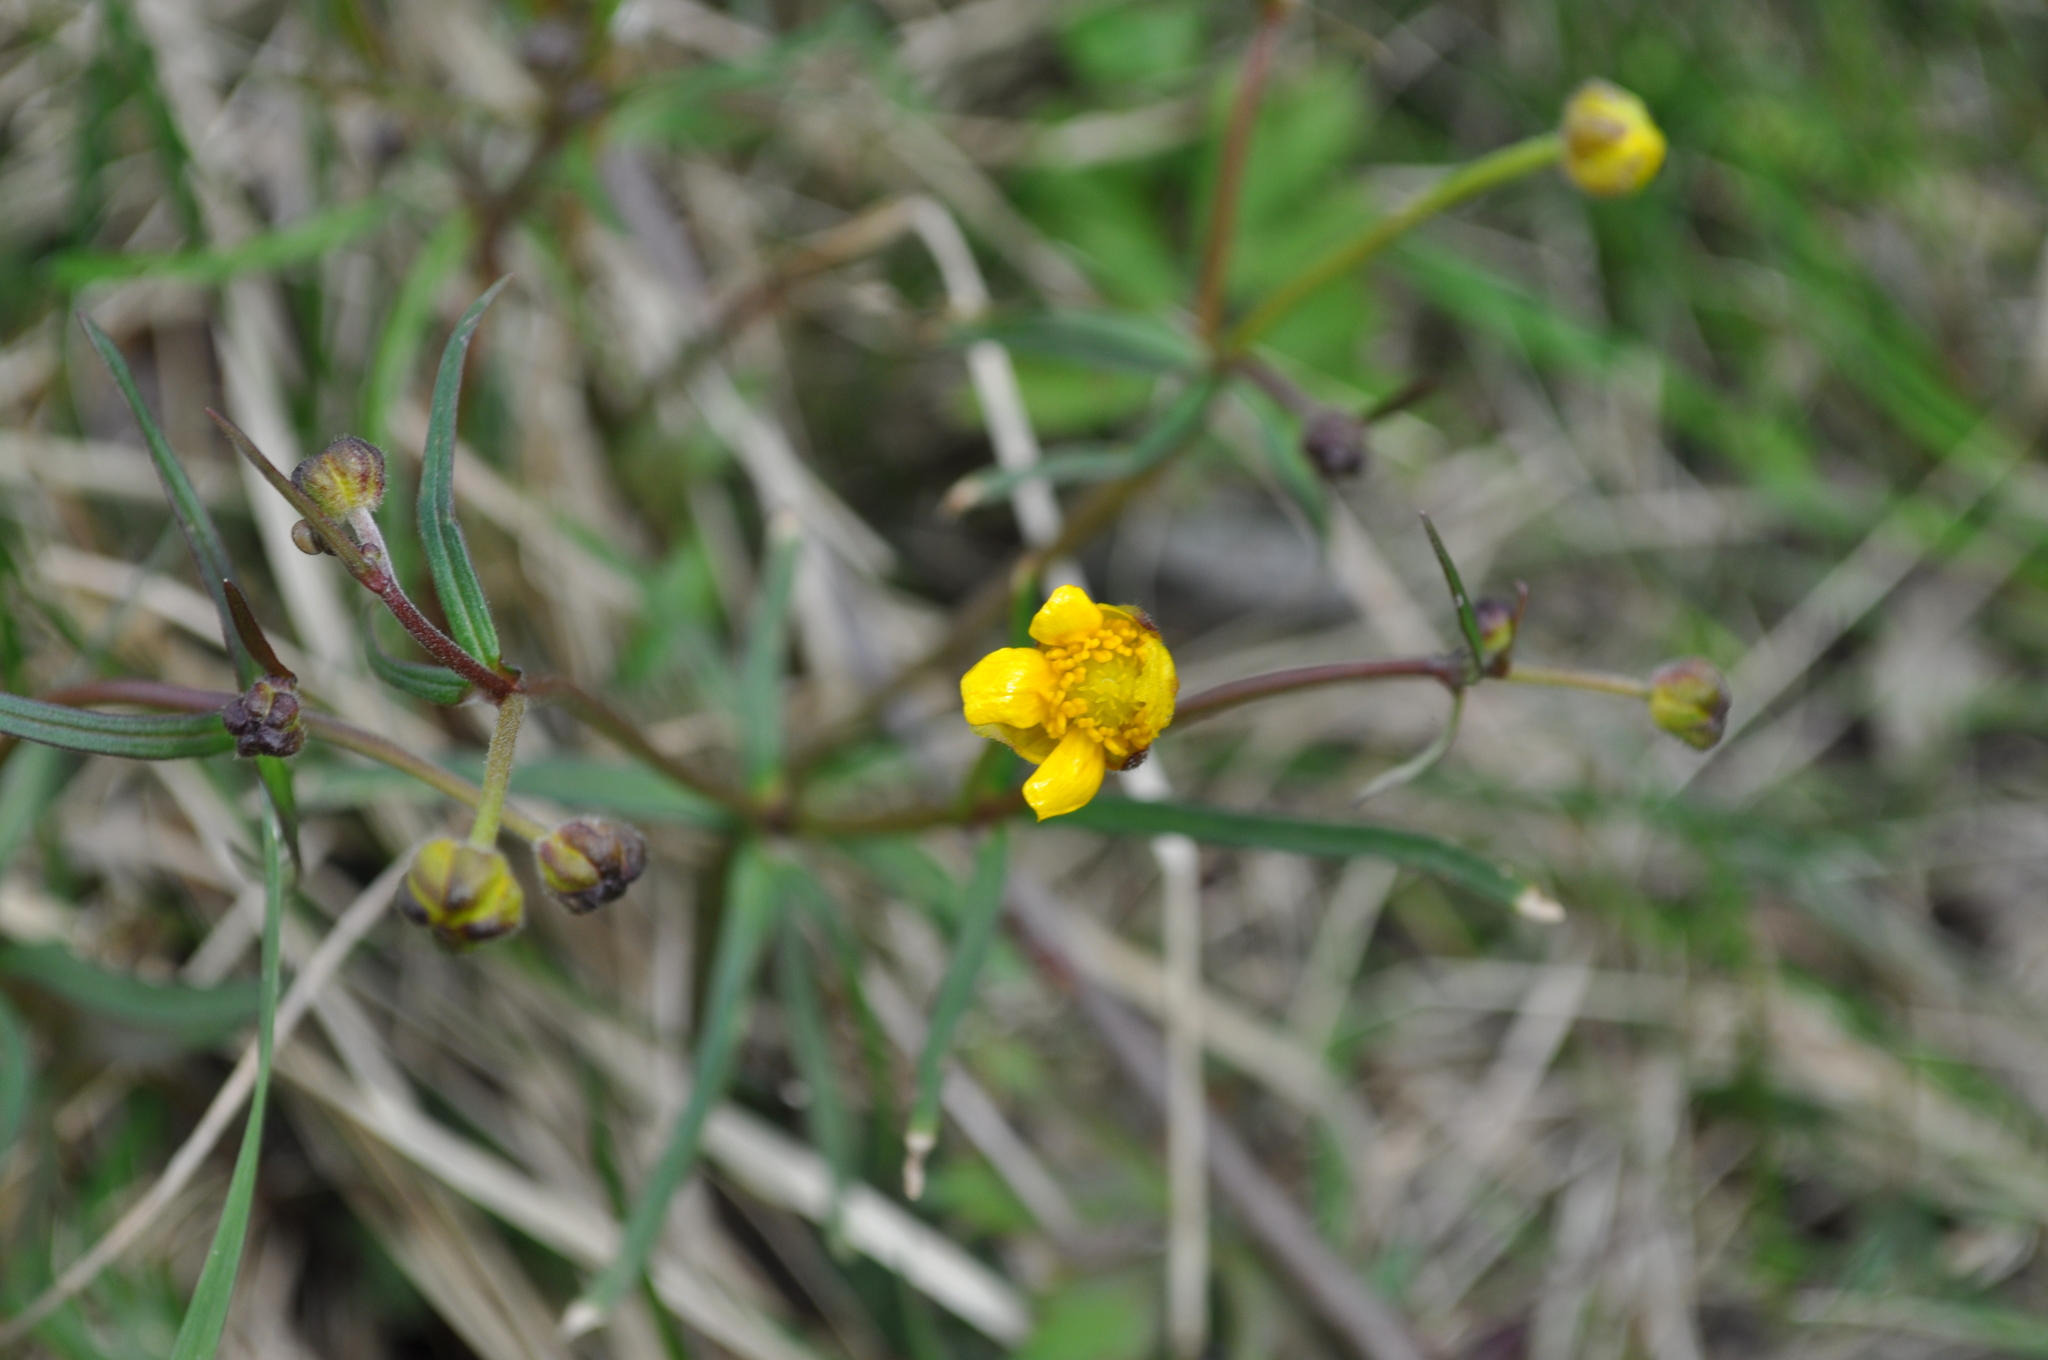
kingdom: Plantae
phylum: Tracheophyta
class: Magnoliopsida
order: Ranunculales
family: Ranunculaceae
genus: Ranunculus
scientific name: Ranunculus auricomus
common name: Goldilocks buttercup
